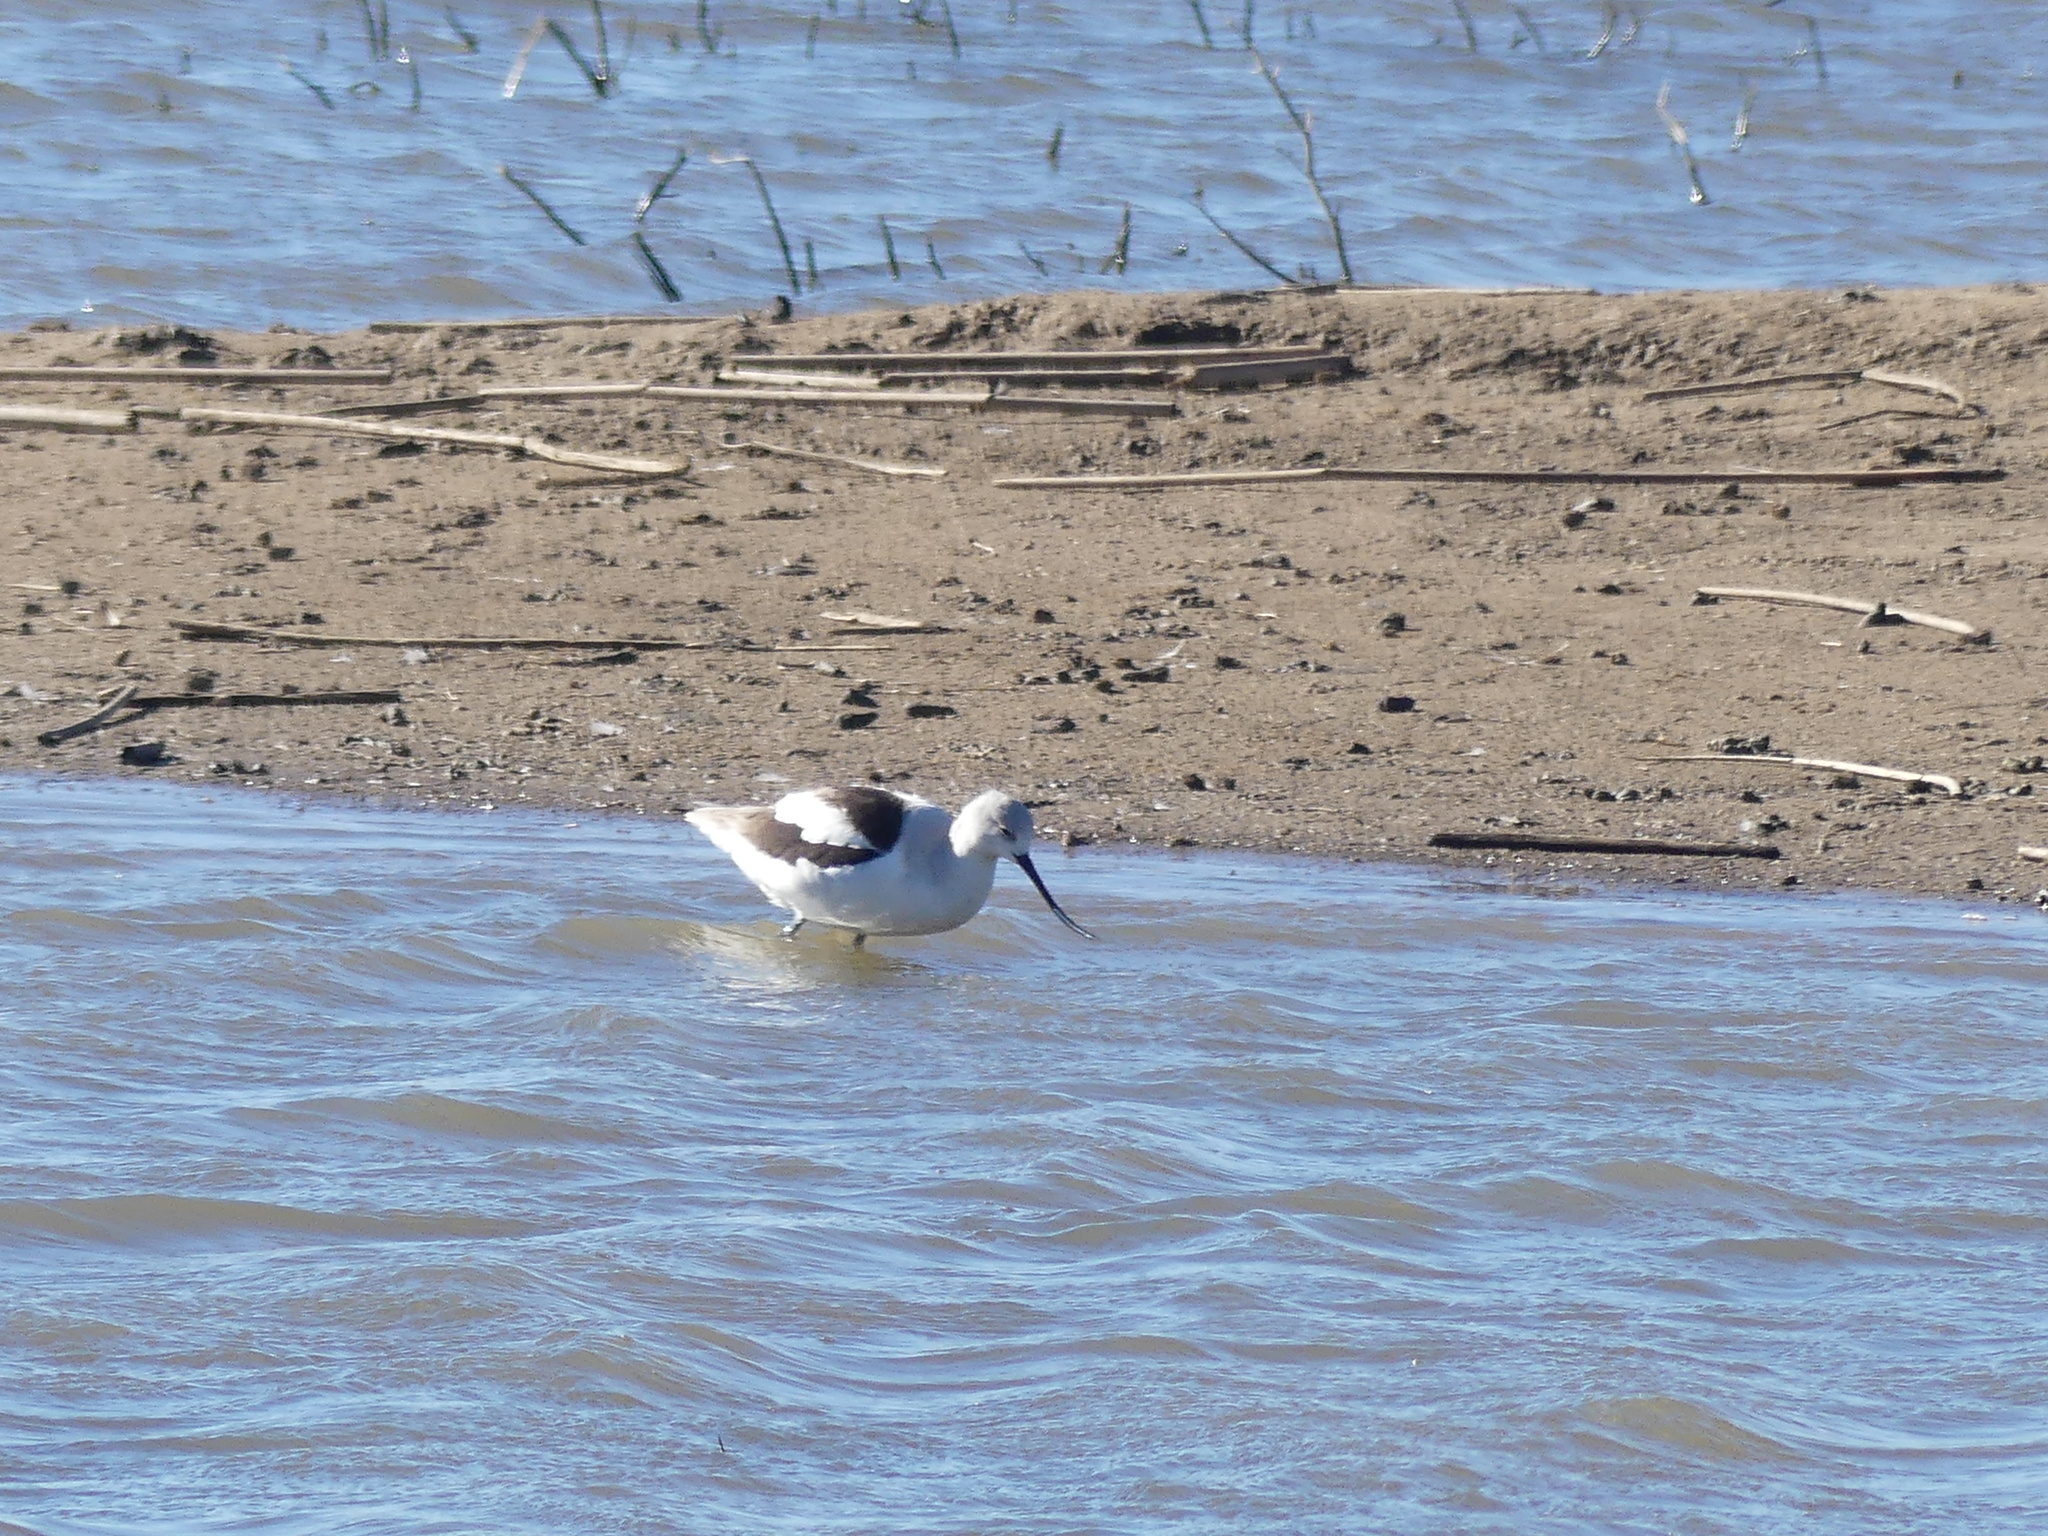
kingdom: Animalia
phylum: Chordata
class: Aves
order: Charadriiformes
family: Recurvirostridae
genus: Recurvirostra
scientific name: Recurvirostra americana
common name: American avocet
